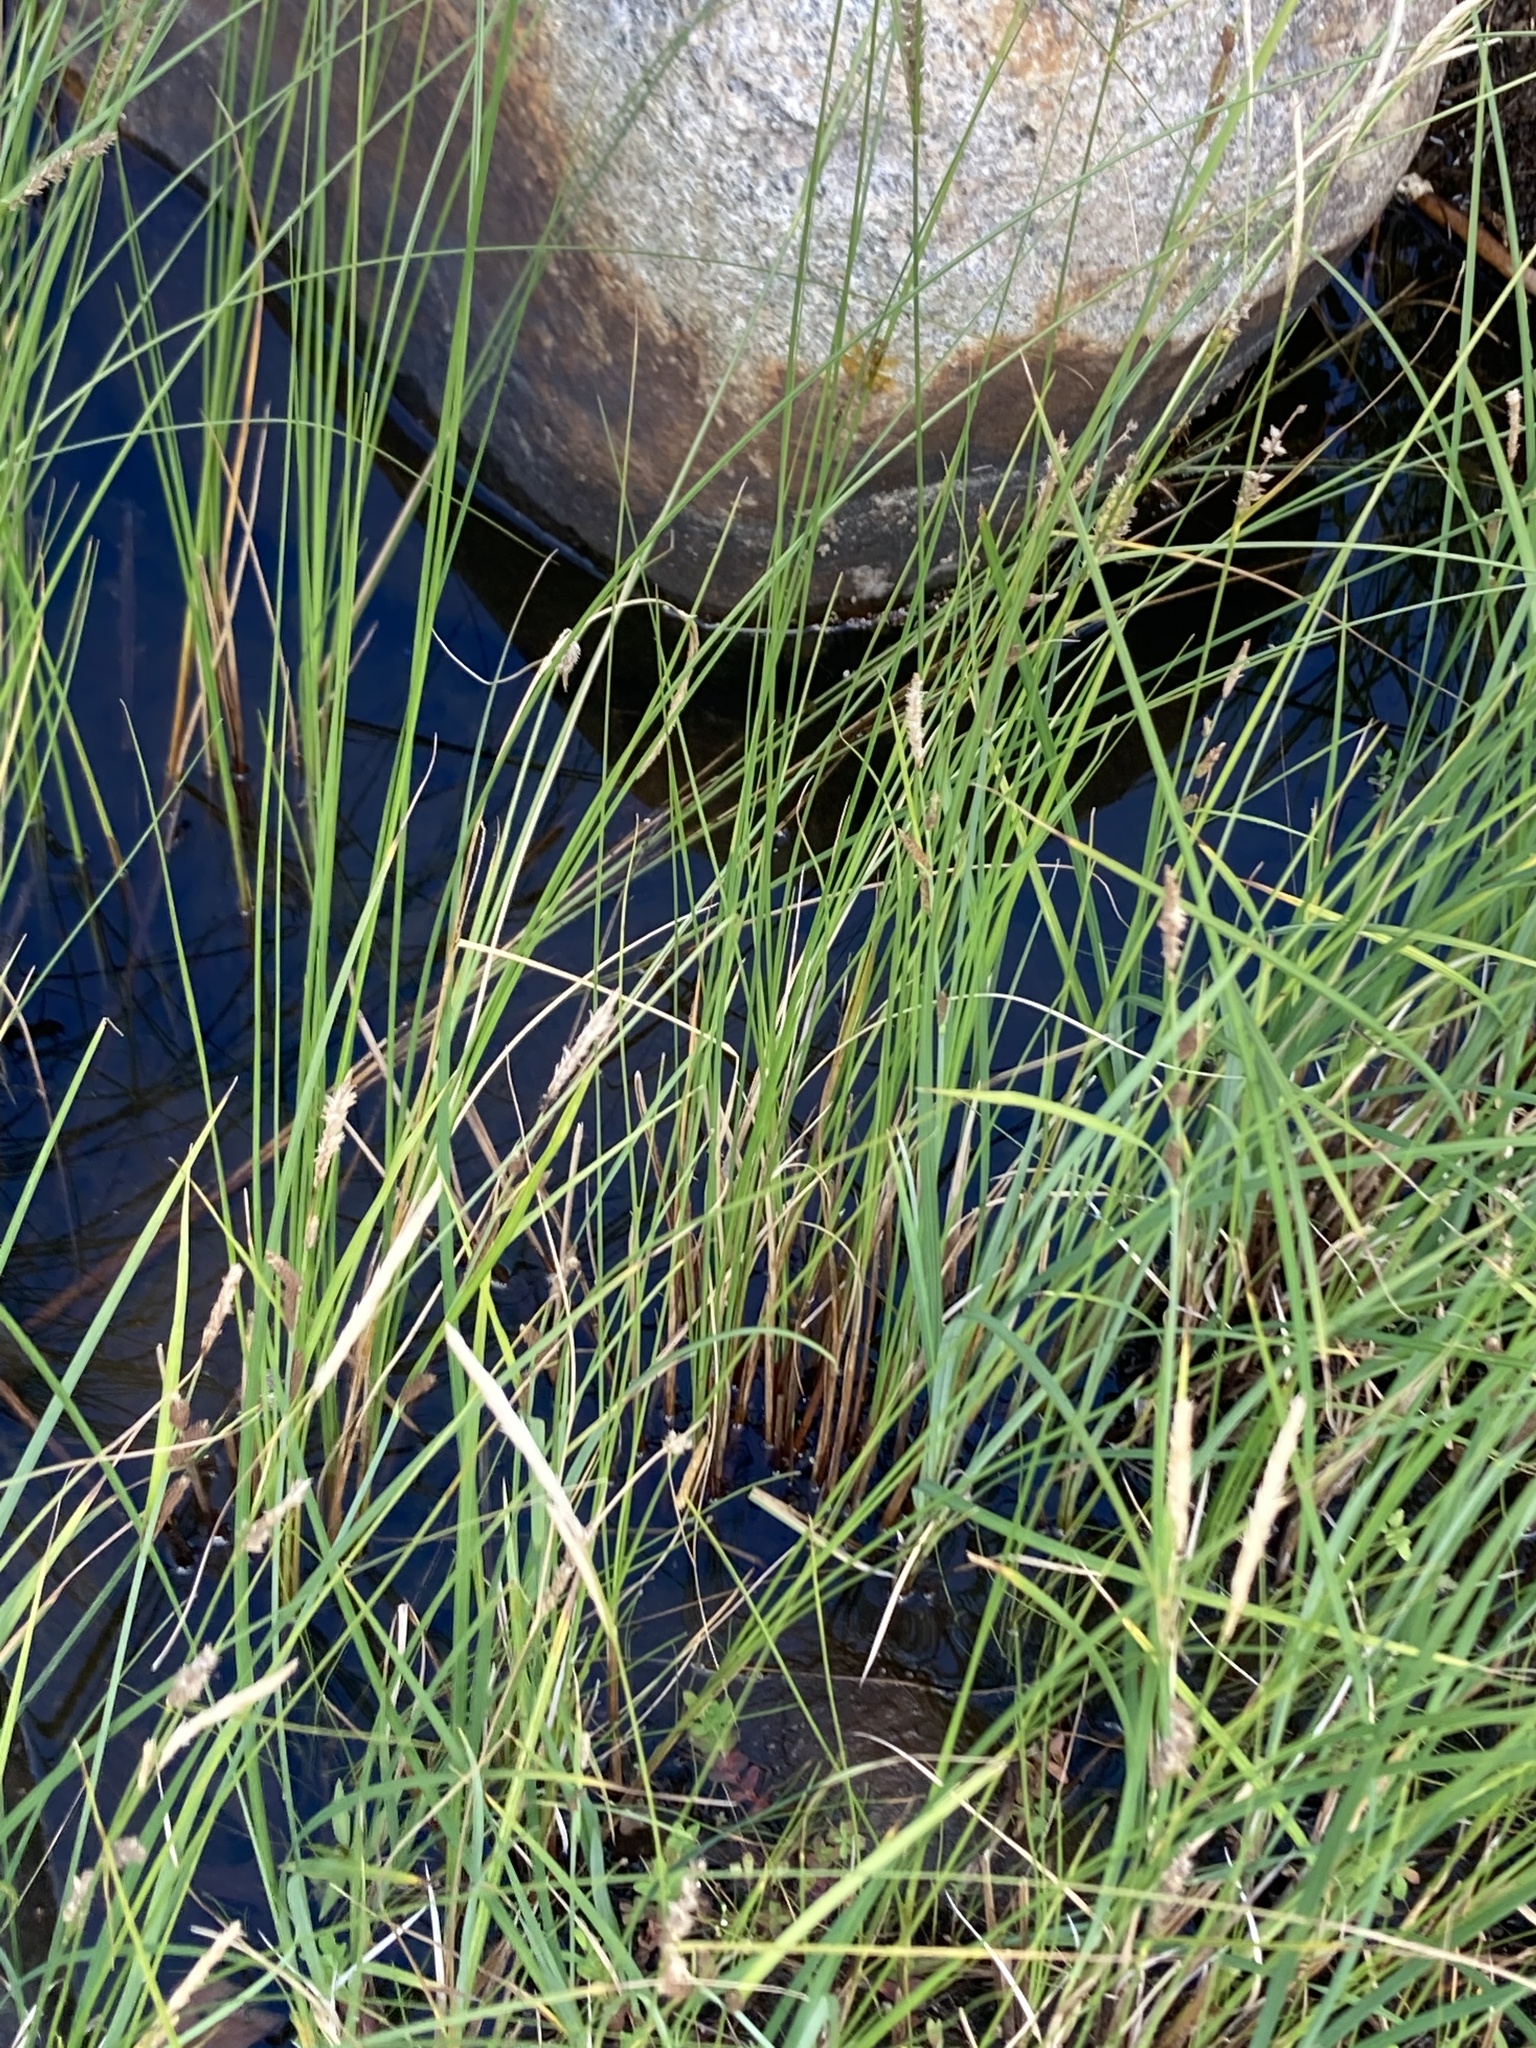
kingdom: Plantae
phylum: Tracheophyta
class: Liliopsida
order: Poales
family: Cyperaceae
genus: Carex
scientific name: Carex stricta
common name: Hummock sedge
